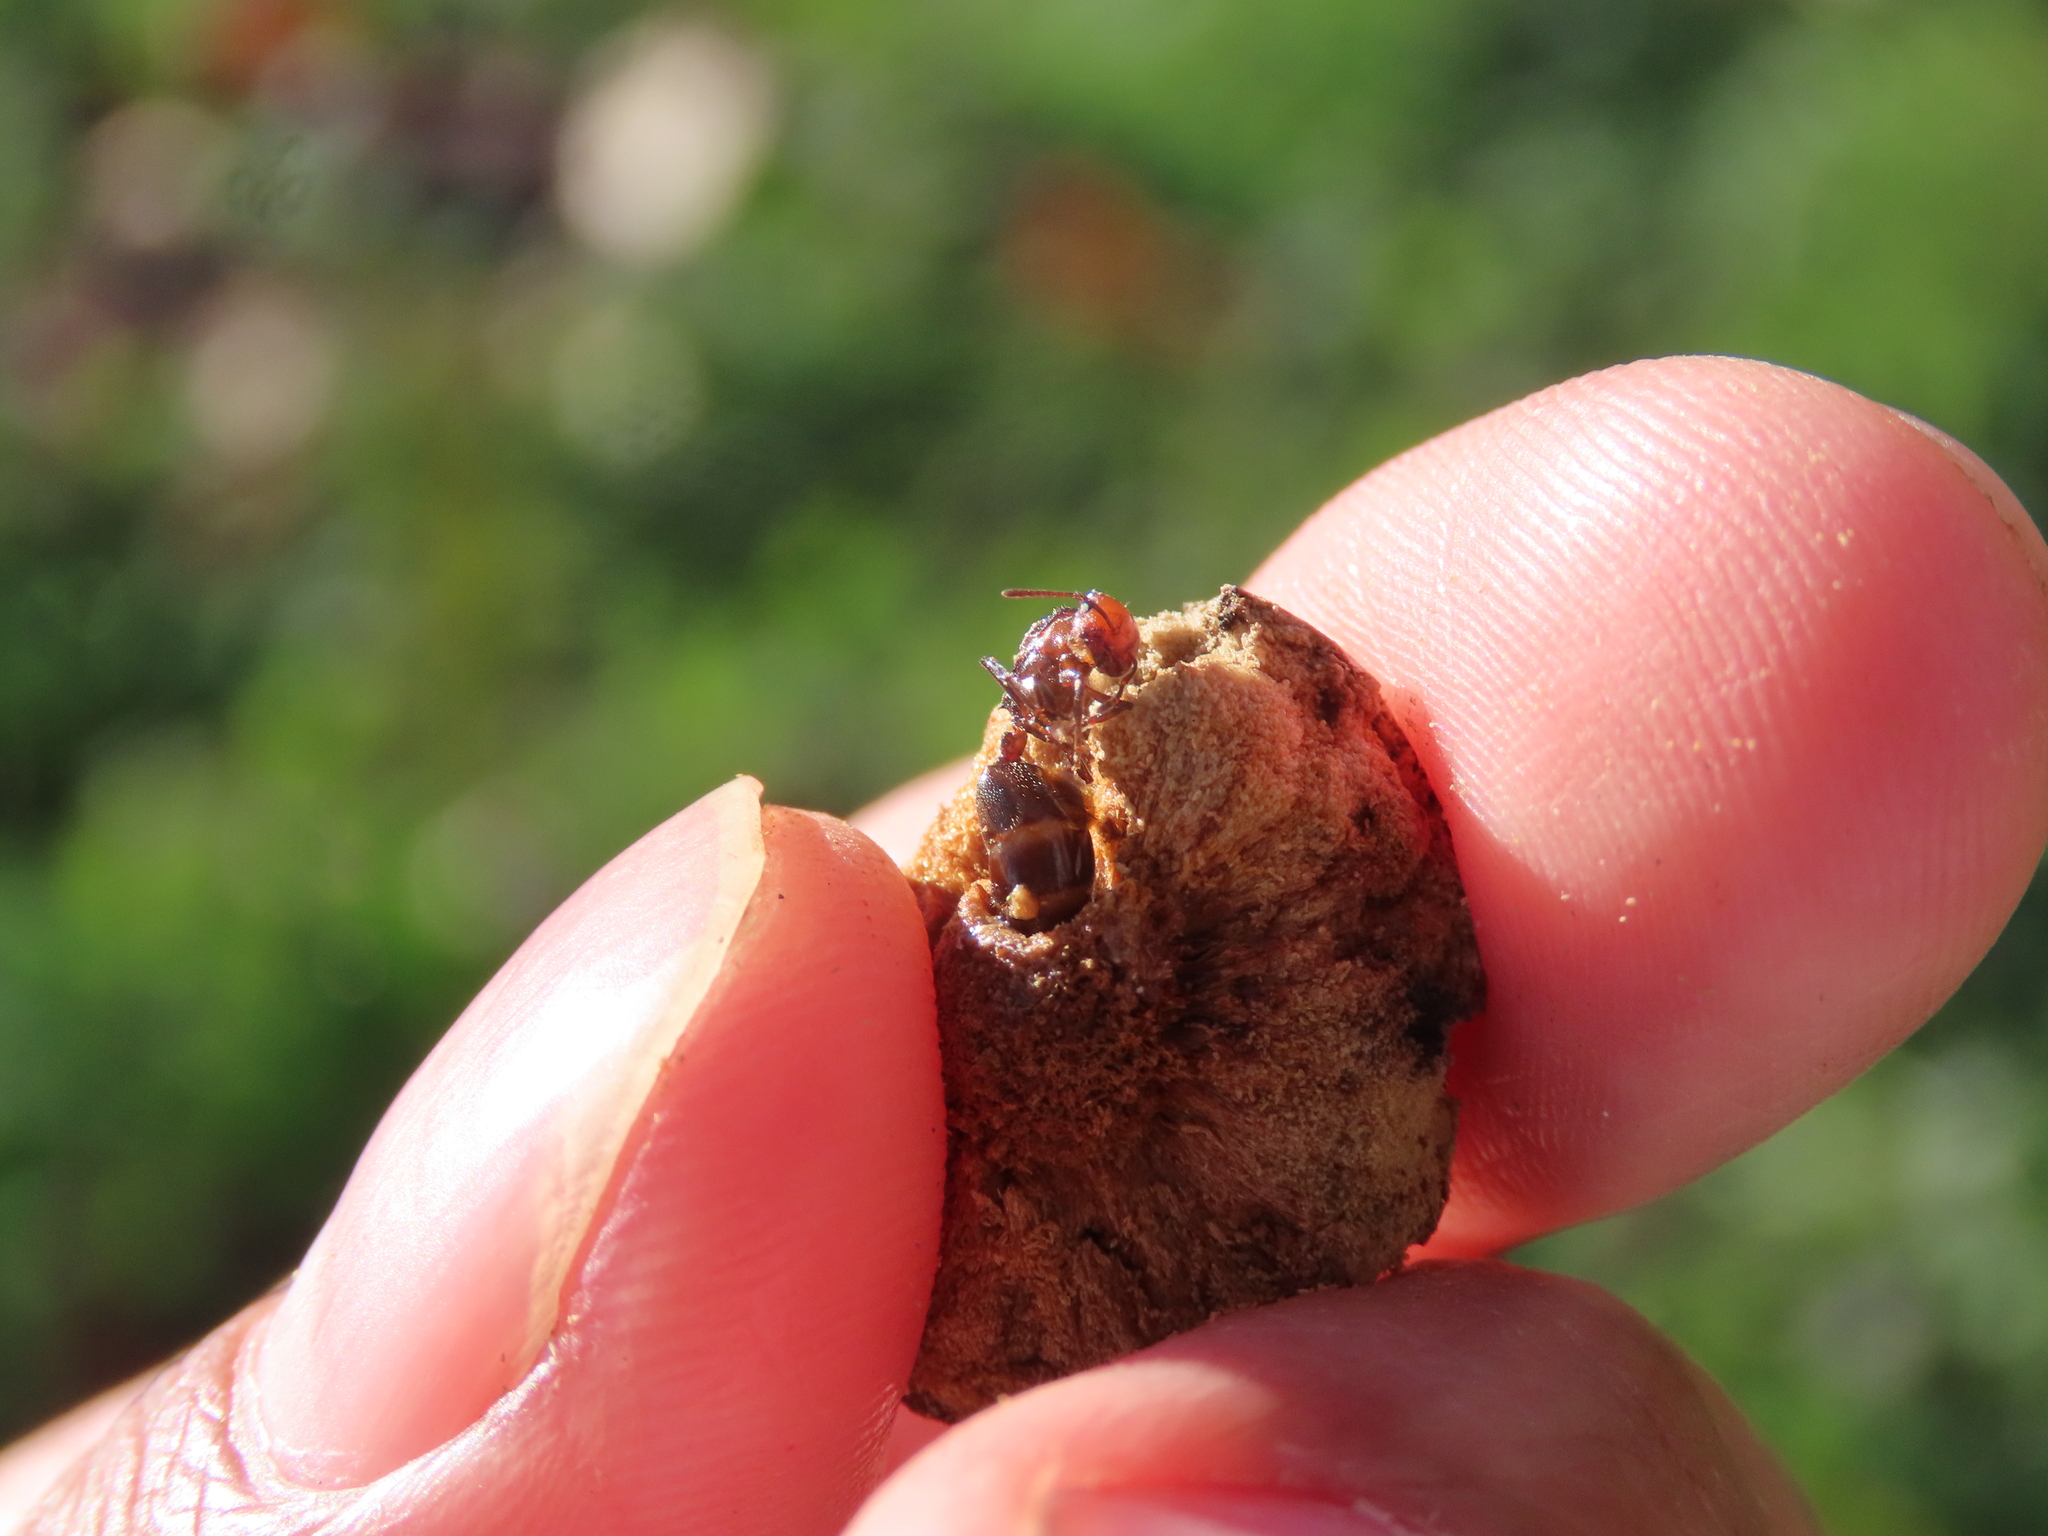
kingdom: Animalia
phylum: Arthropoda
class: Insecta
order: Hymenoptera
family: Formicidae
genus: Crematogaster
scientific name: Crematogaster scutellaris
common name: Fourmi du liège
